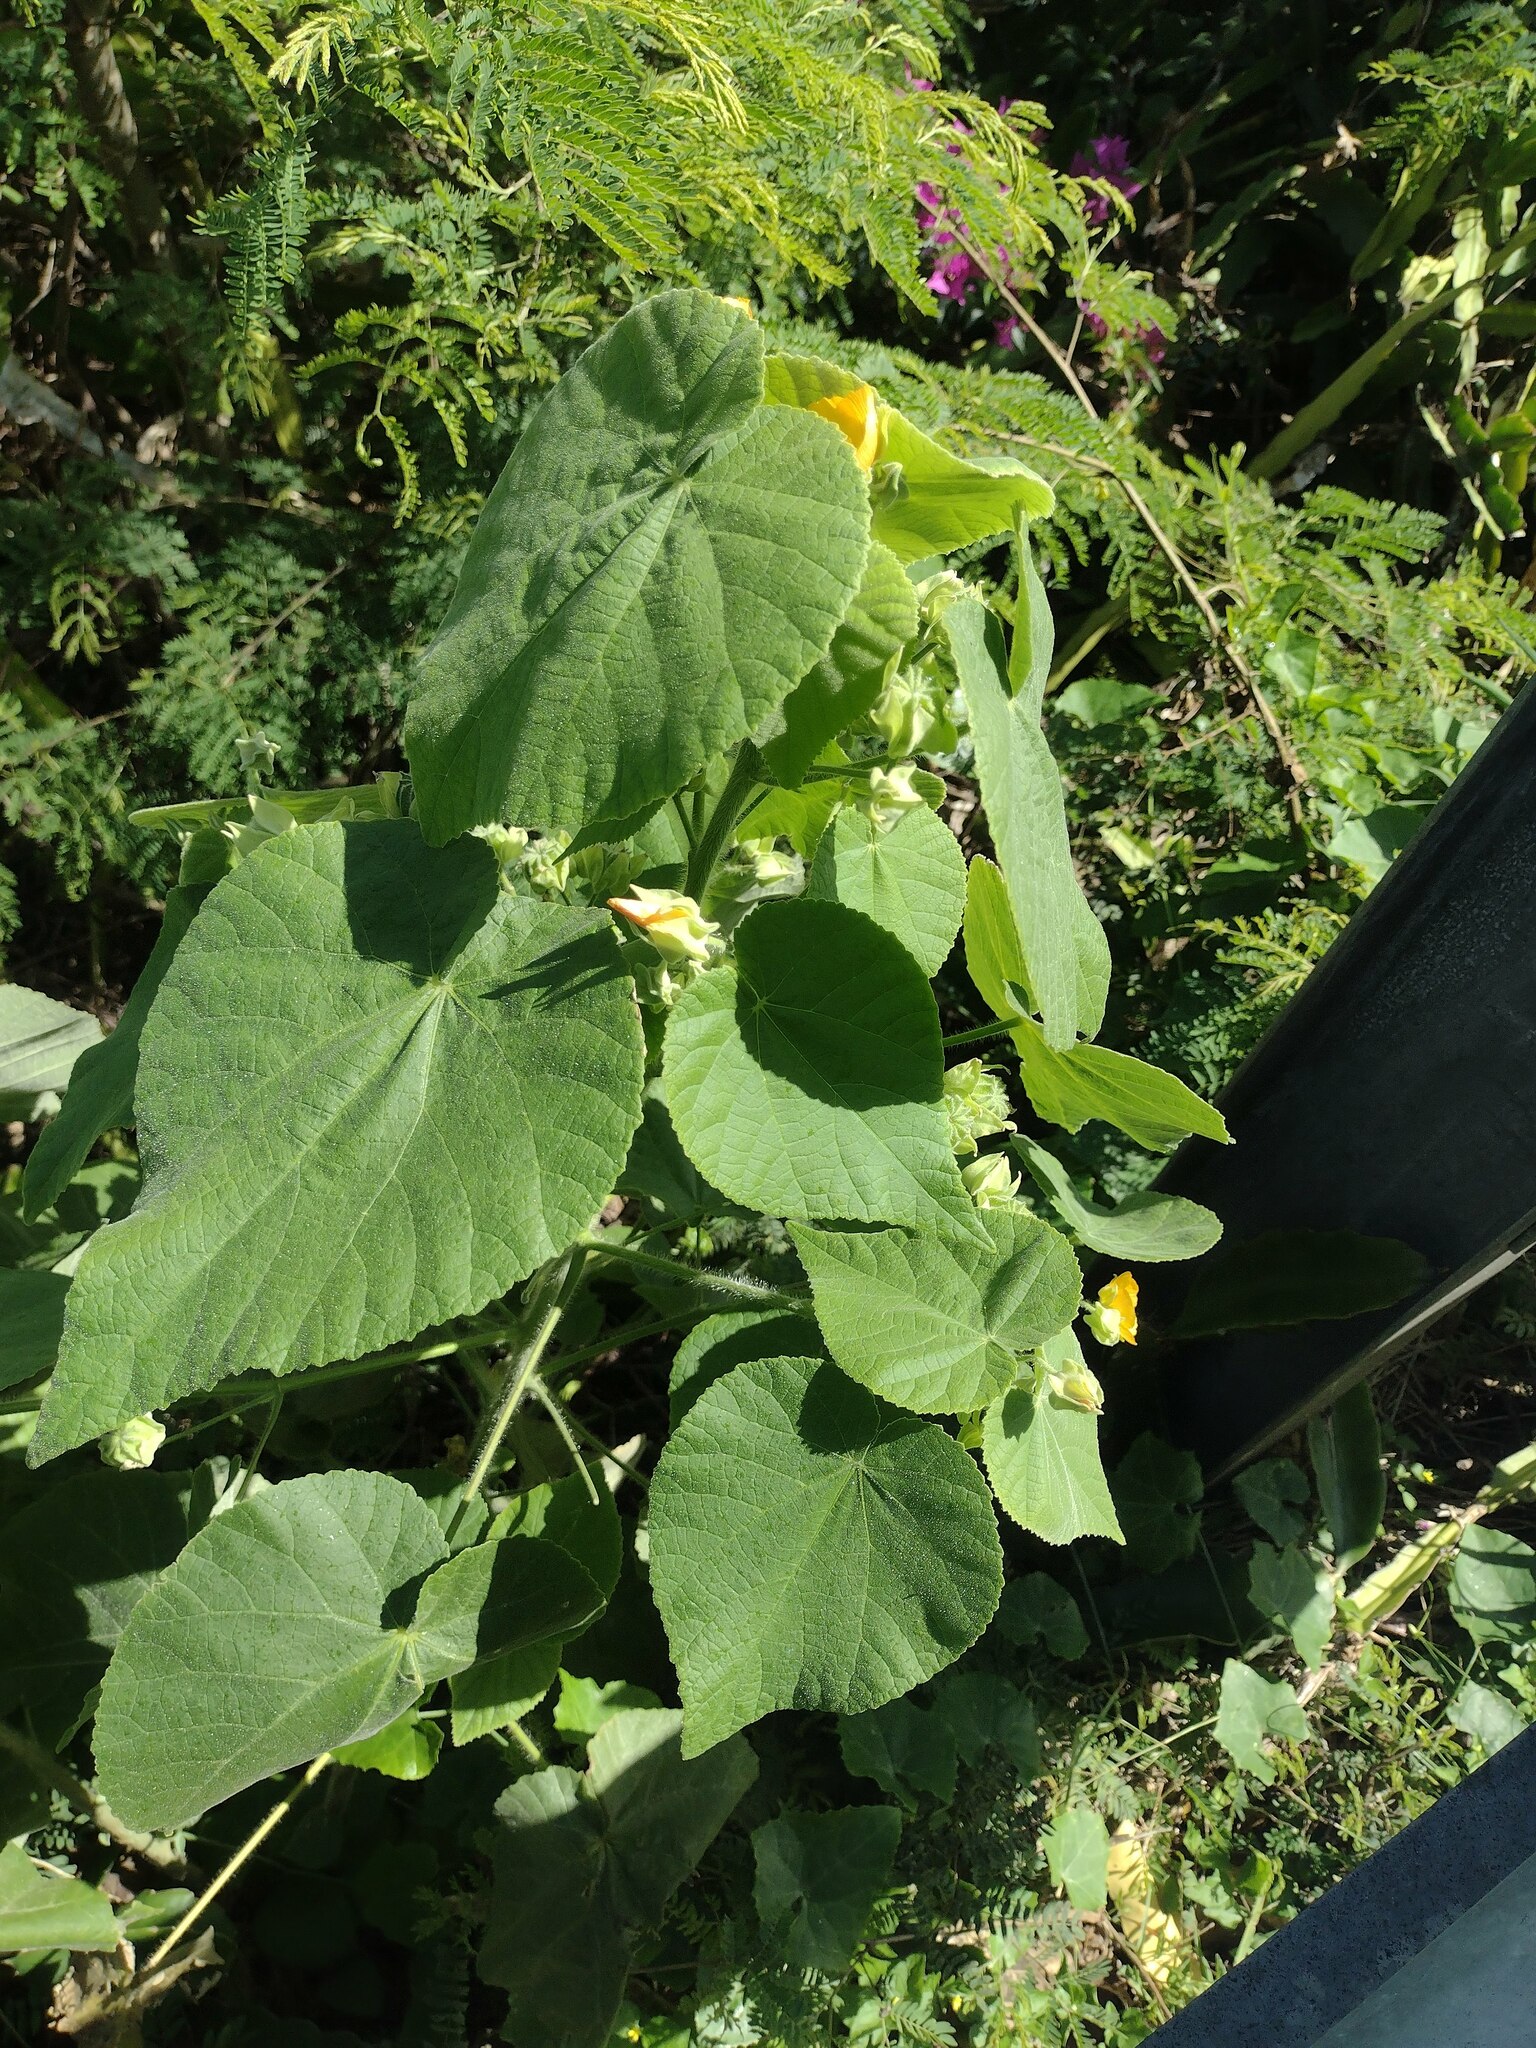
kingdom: Plantae
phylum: Tracheophyta
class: Magnoliopsida
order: Malvales
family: Malvaceae
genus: Abutilon
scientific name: Abutilon grandifolium
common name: Hairy abutilon
